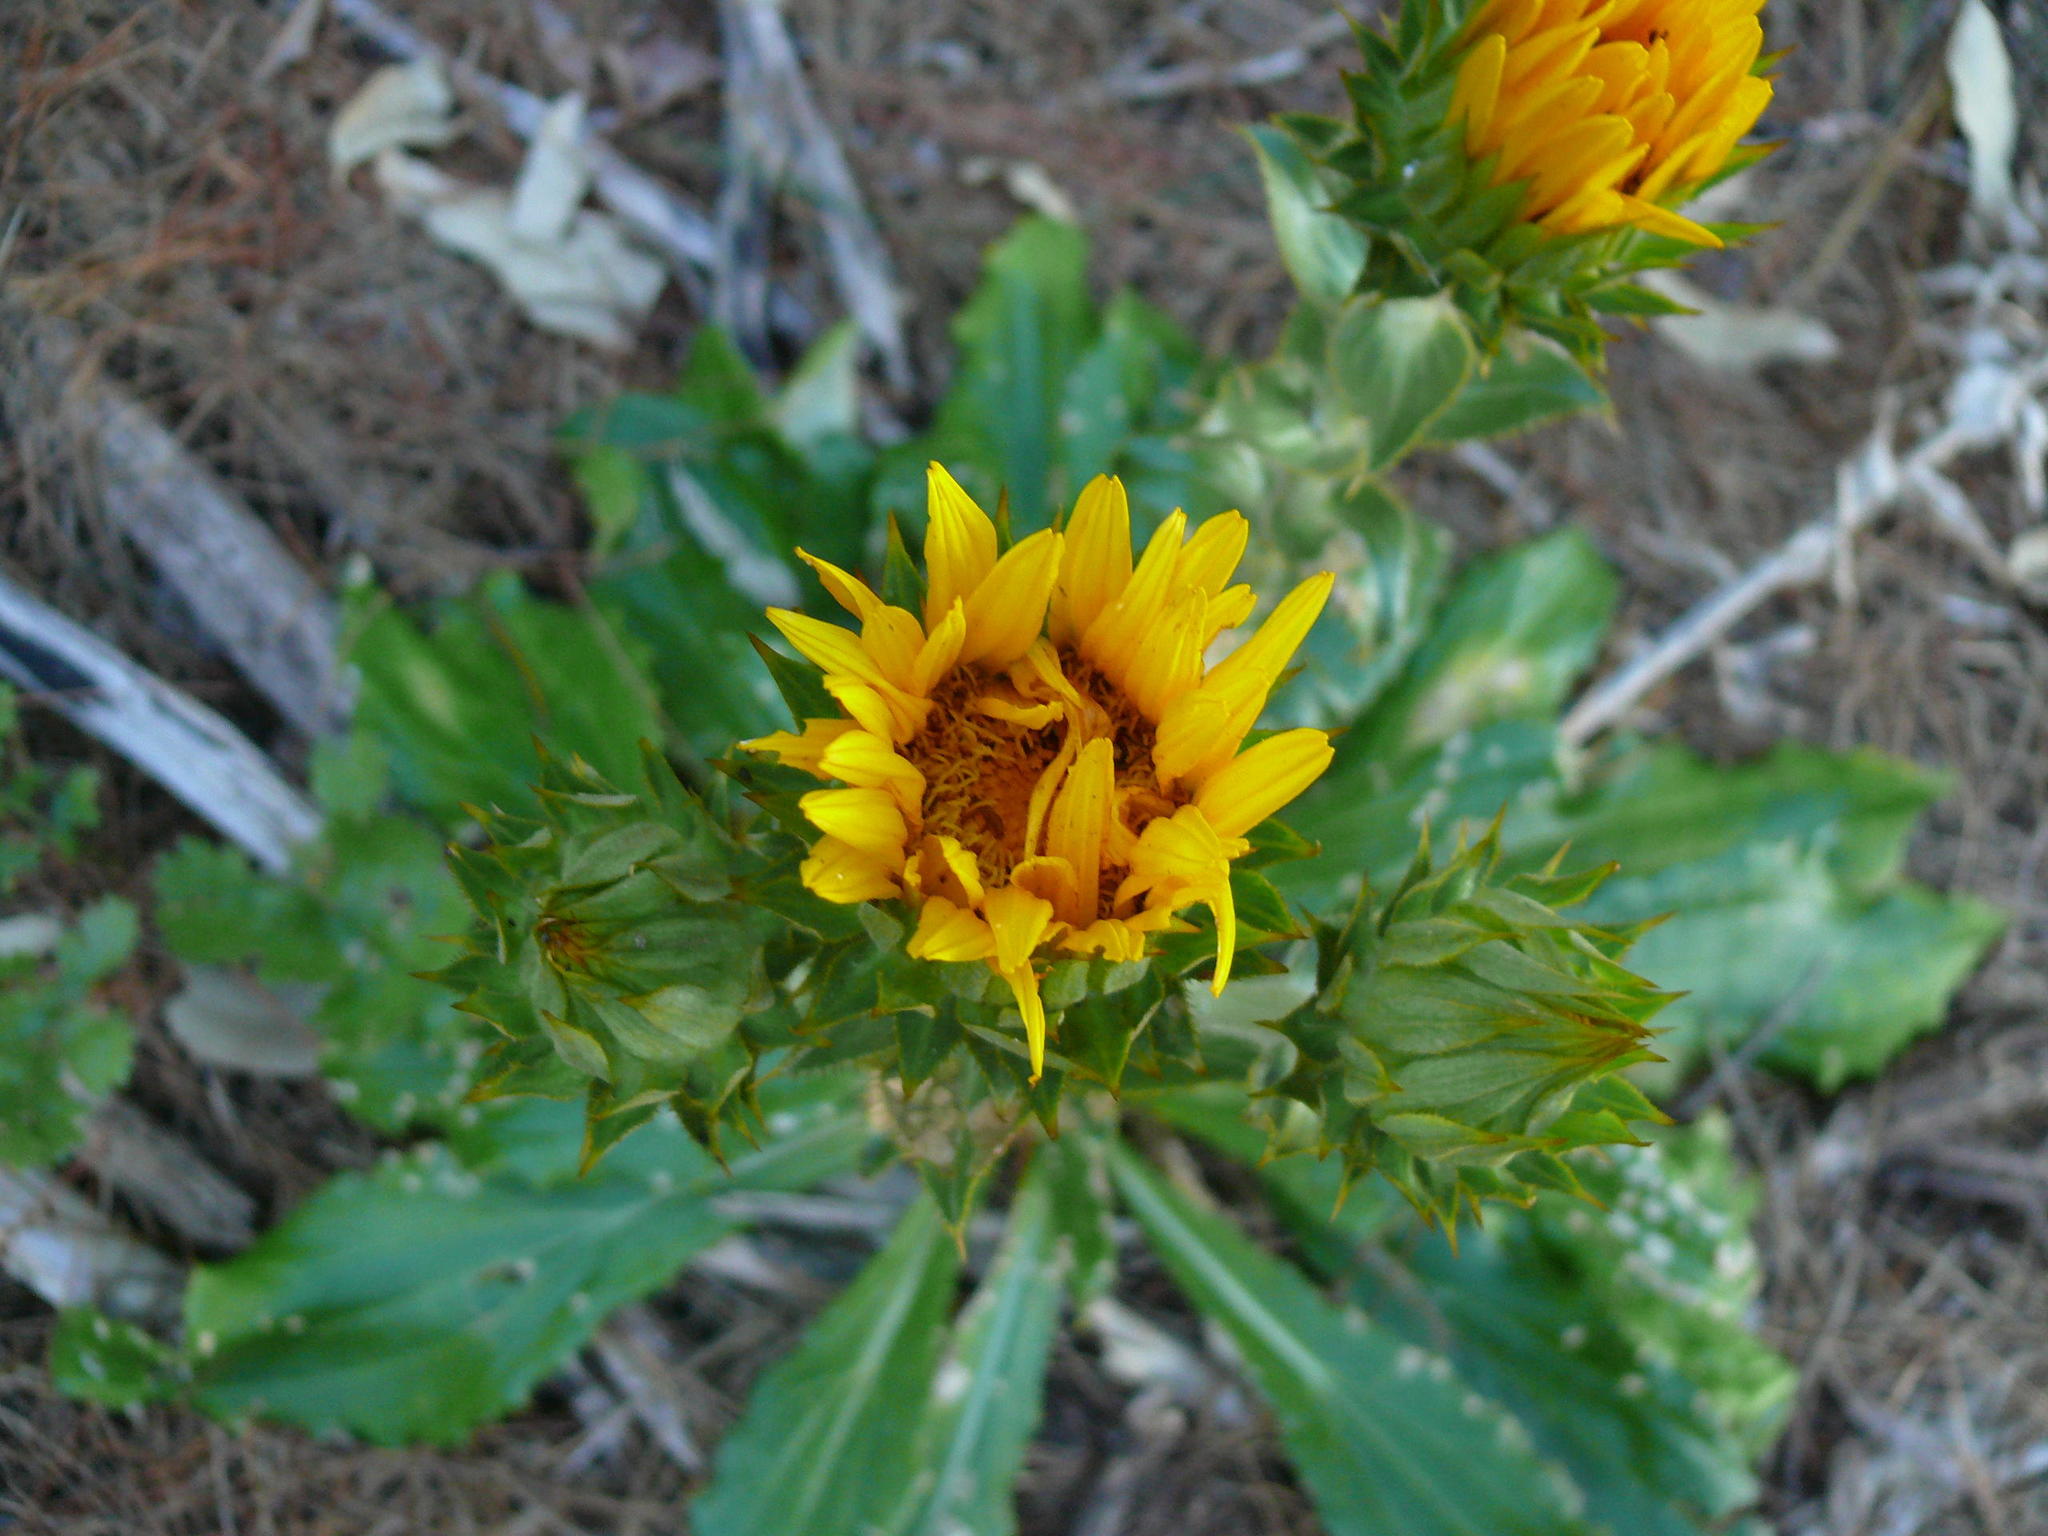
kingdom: Plantae
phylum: Tracheophyta
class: Magnoliopsida
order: Asterales
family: Asteraceae
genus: Berkheya
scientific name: Berkheya armata
